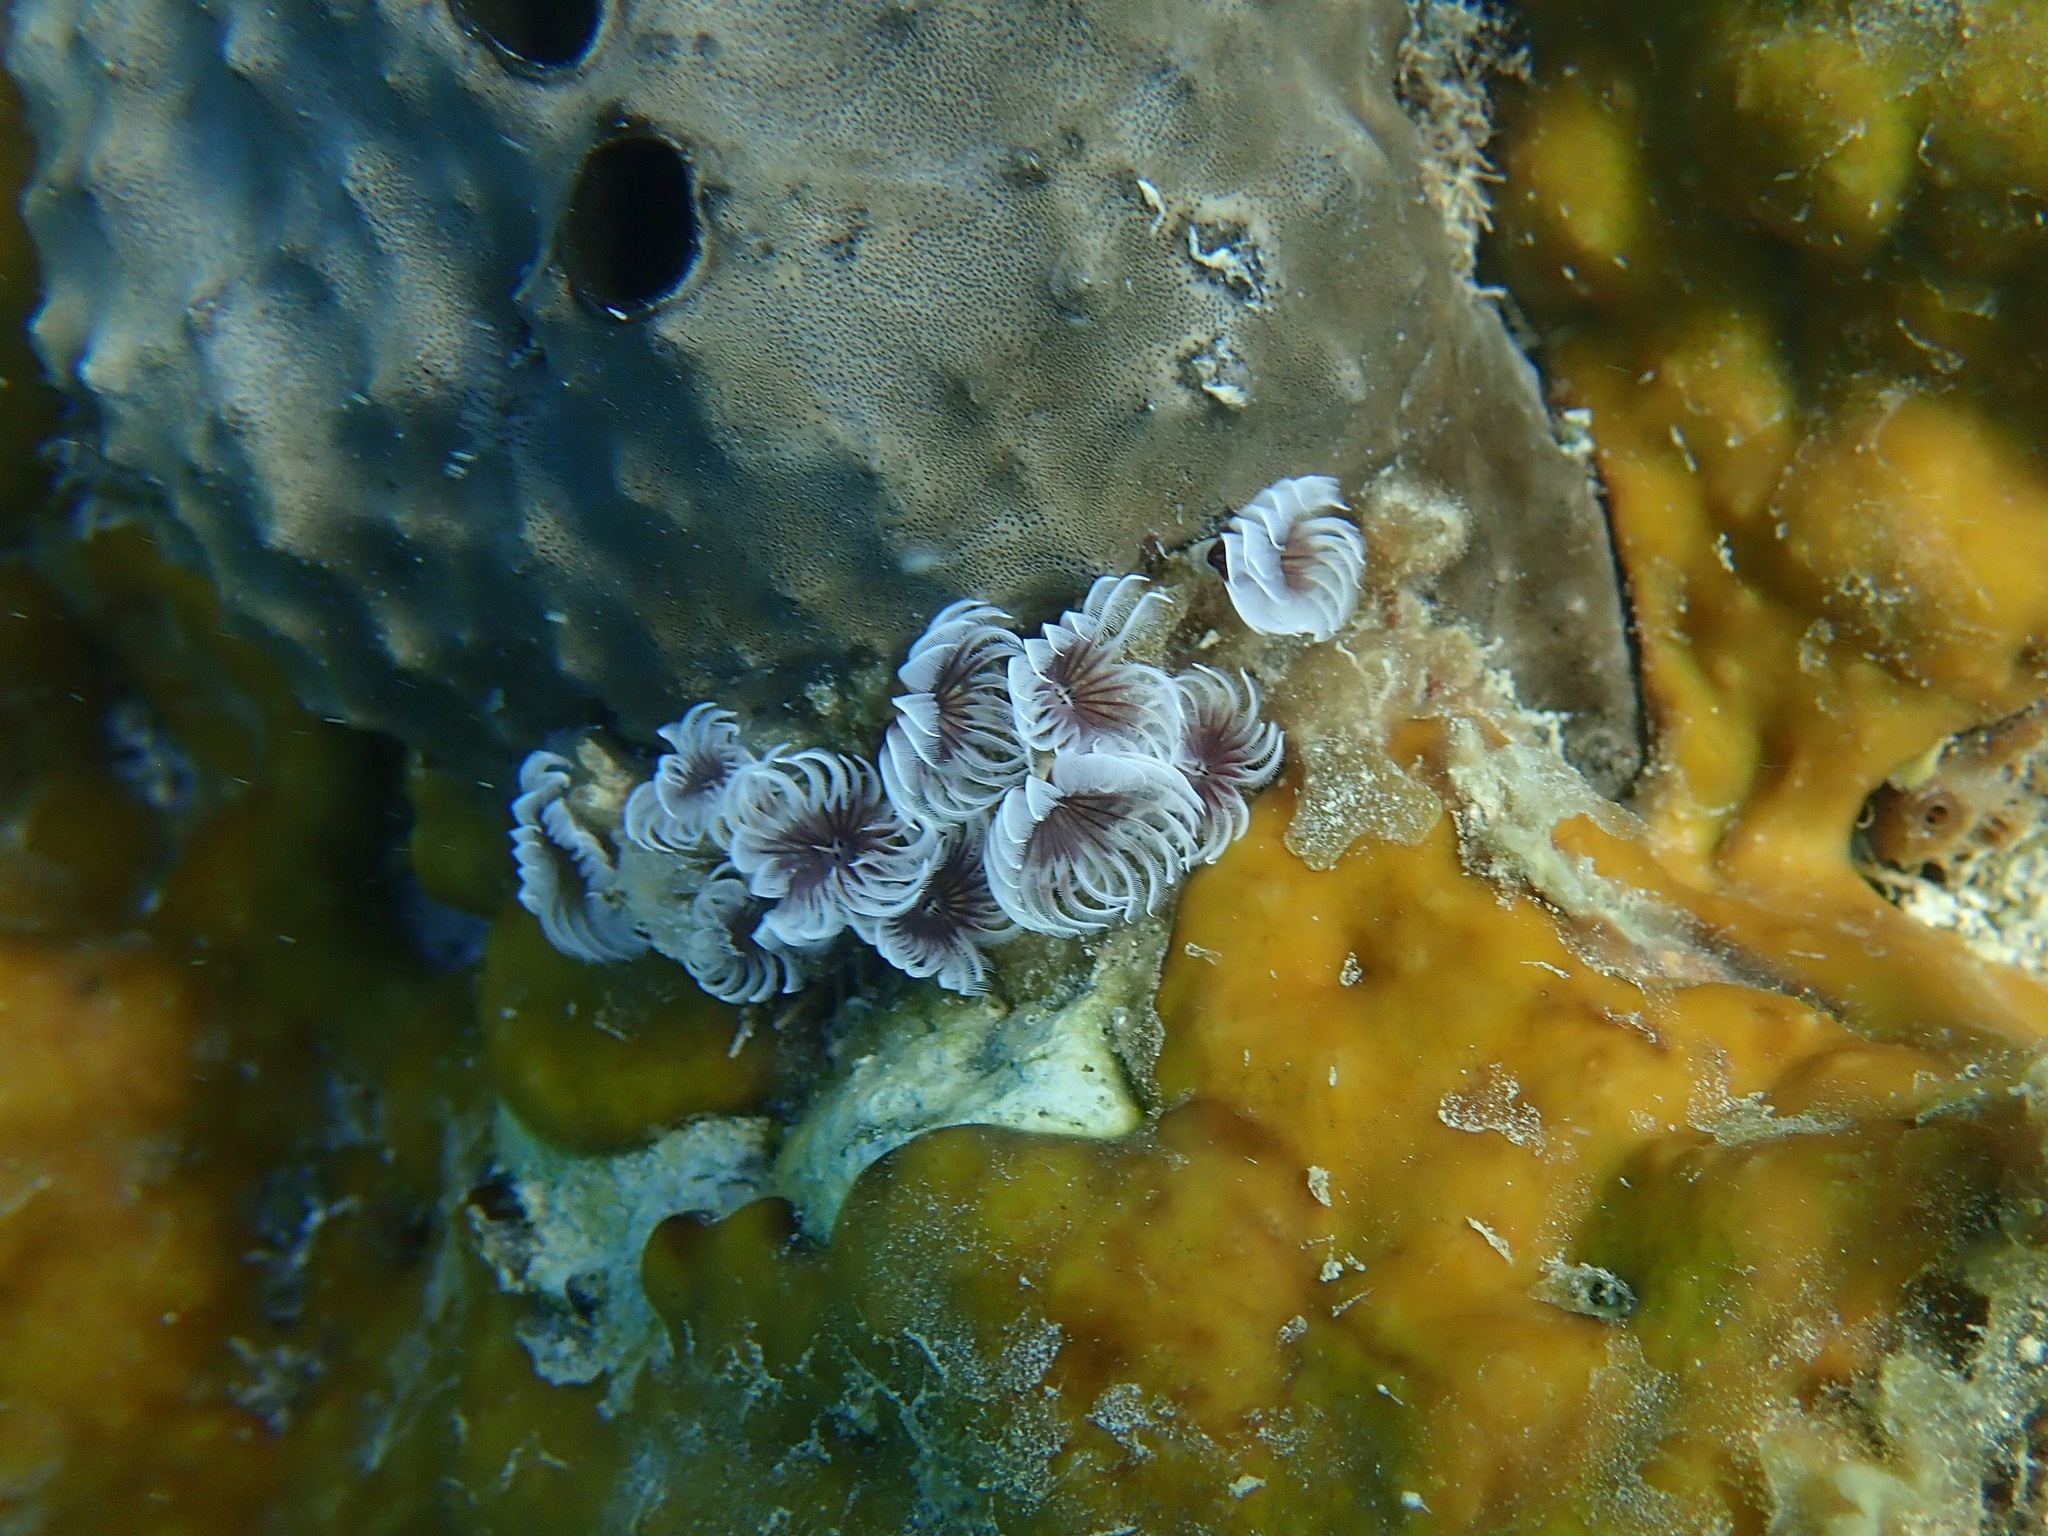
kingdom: Animalia
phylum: Annelida
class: Polychaeta
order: Sabellida
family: Sabellidae
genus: Bispira
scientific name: Bispira brunnea
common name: Social feather duster
